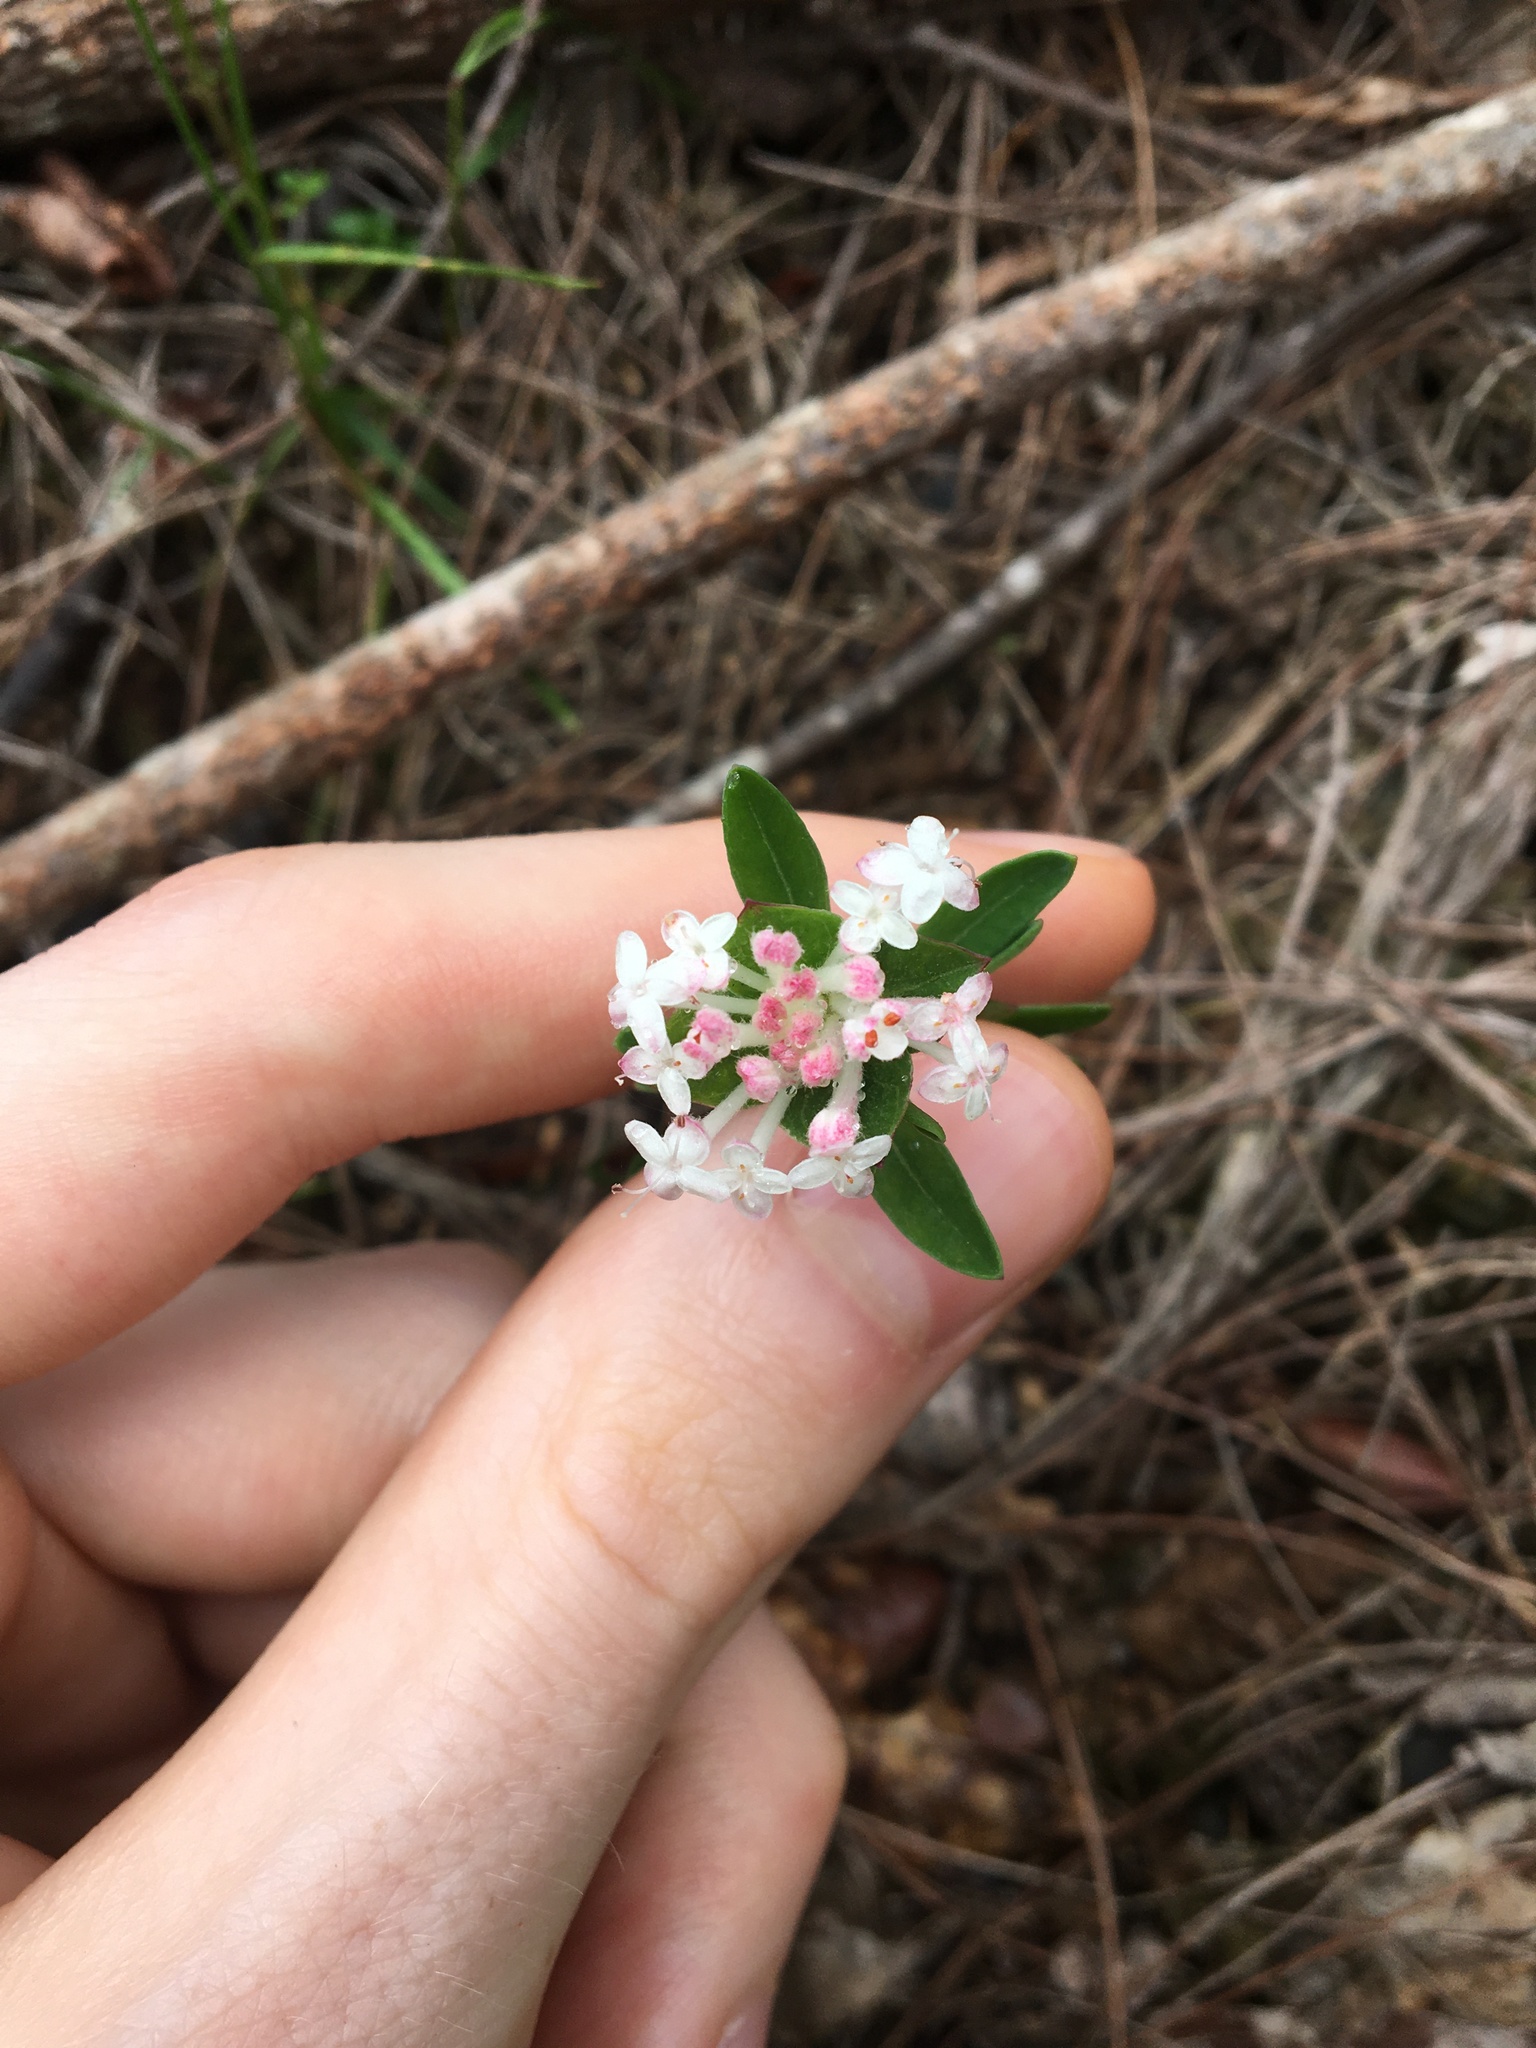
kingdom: Plantae
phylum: Tracheophyta
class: Magnoliopsida
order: Malvales
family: Thymelaeaceae
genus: Pimelea
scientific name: Pimelea linifolia
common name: Queen-of-the-bush
